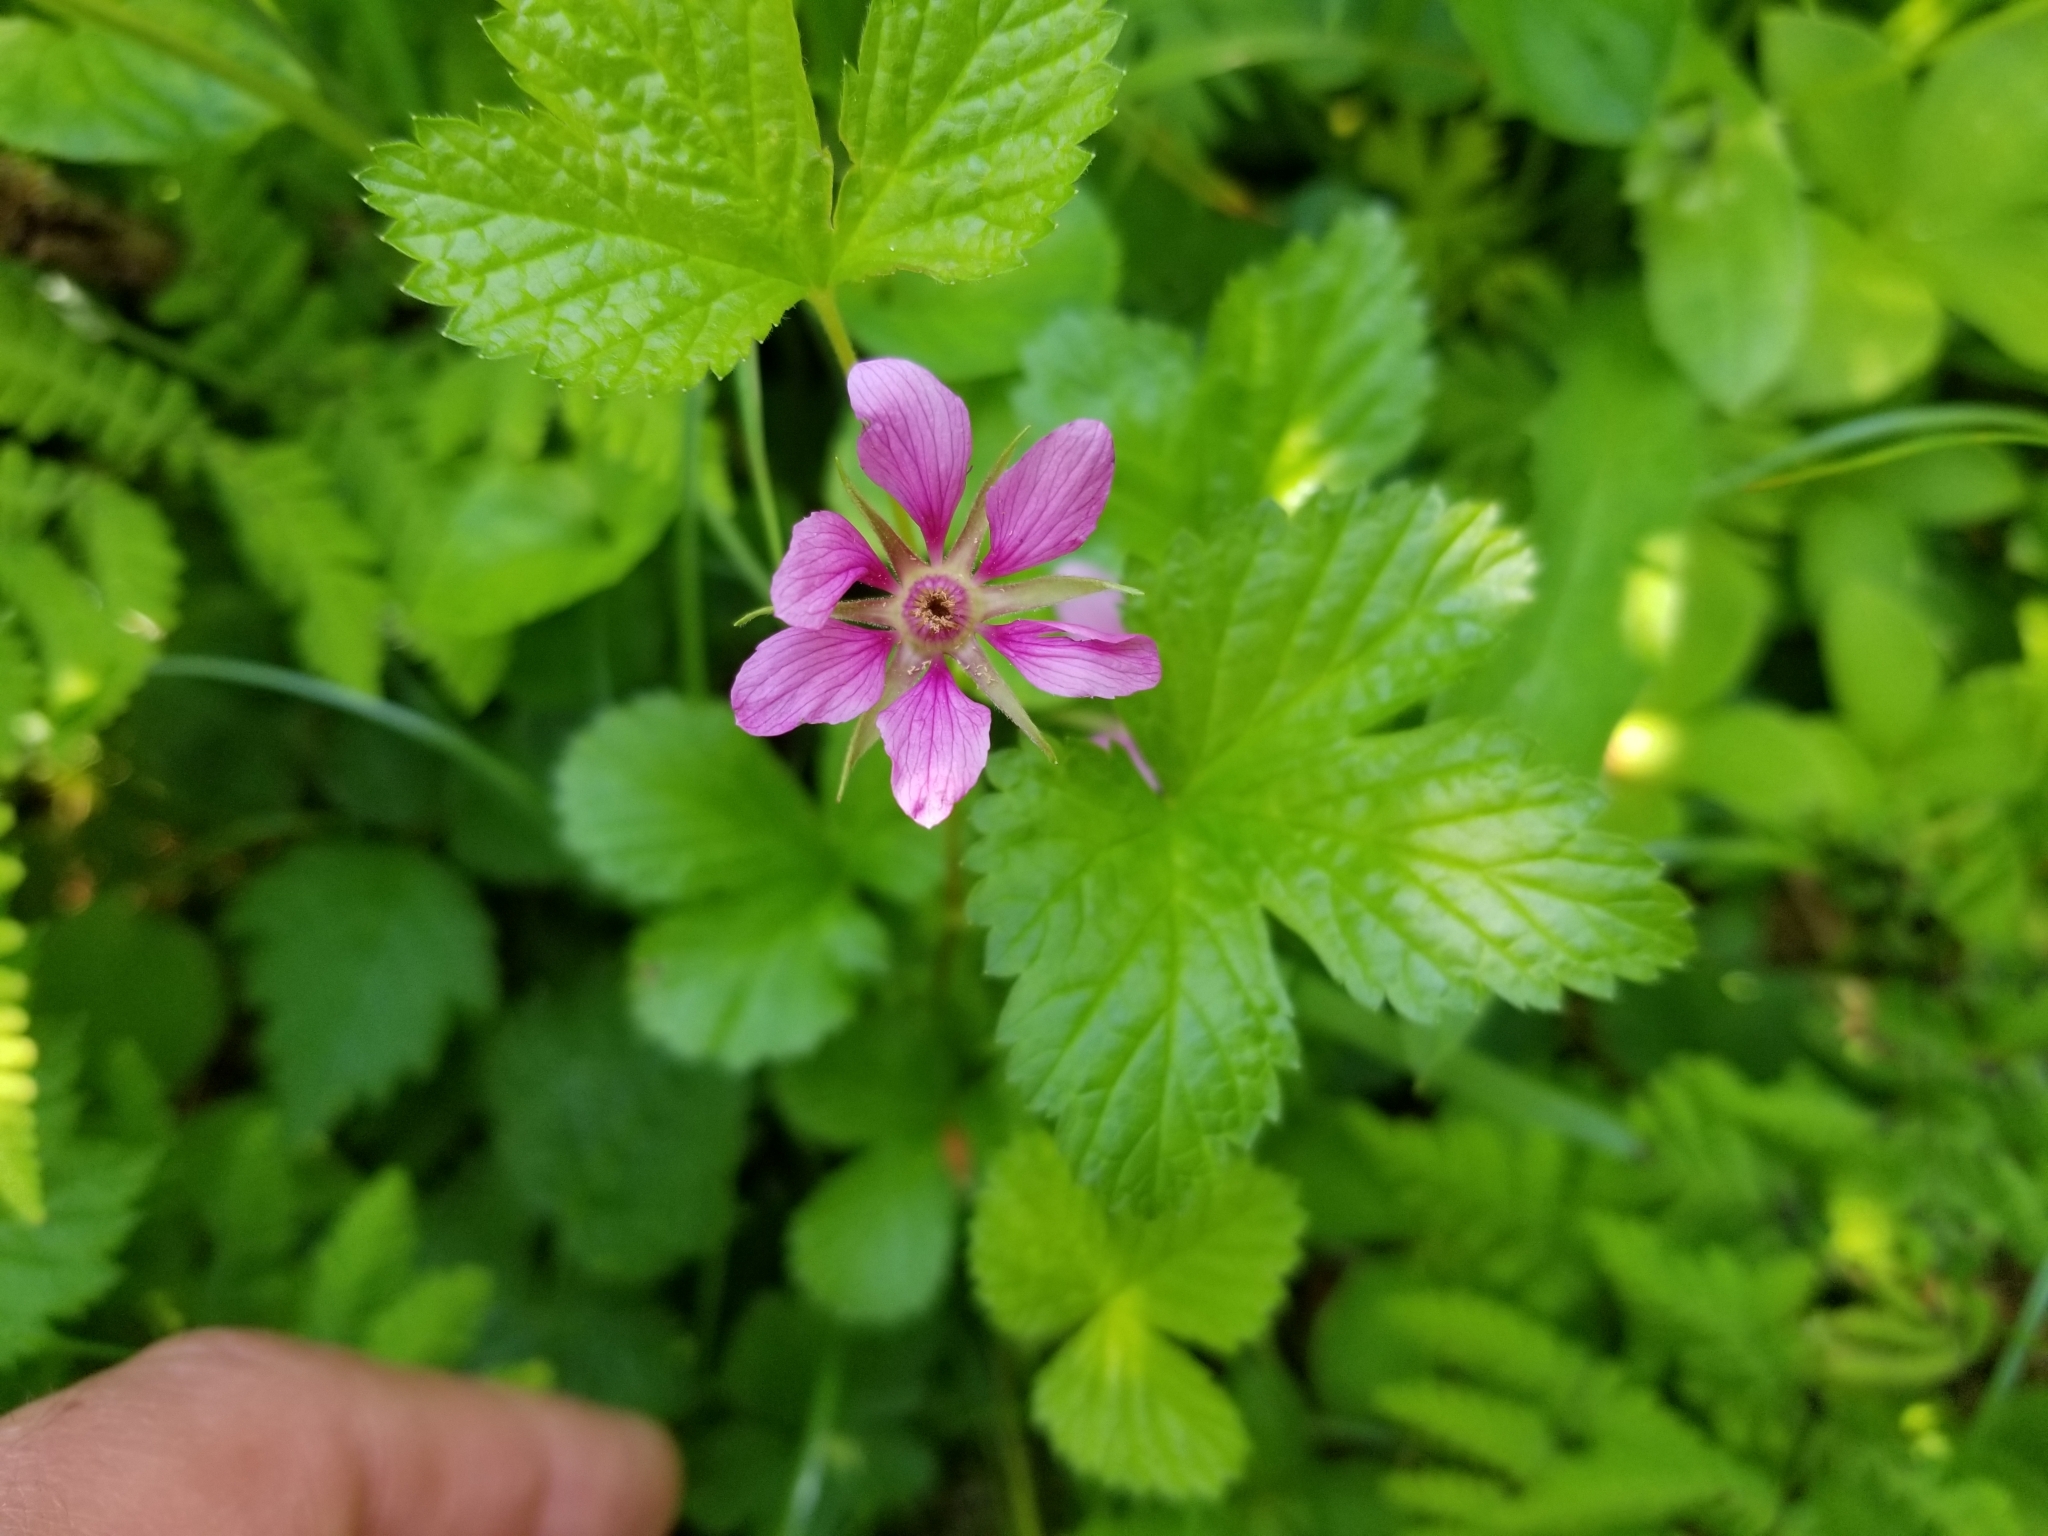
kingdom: Plantae
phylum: Tracheophyta
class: Magnoliopsida
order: Rosales
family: Rosaceae
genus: Rubus
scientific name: Rubus arcticus
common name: Arctic bramble
